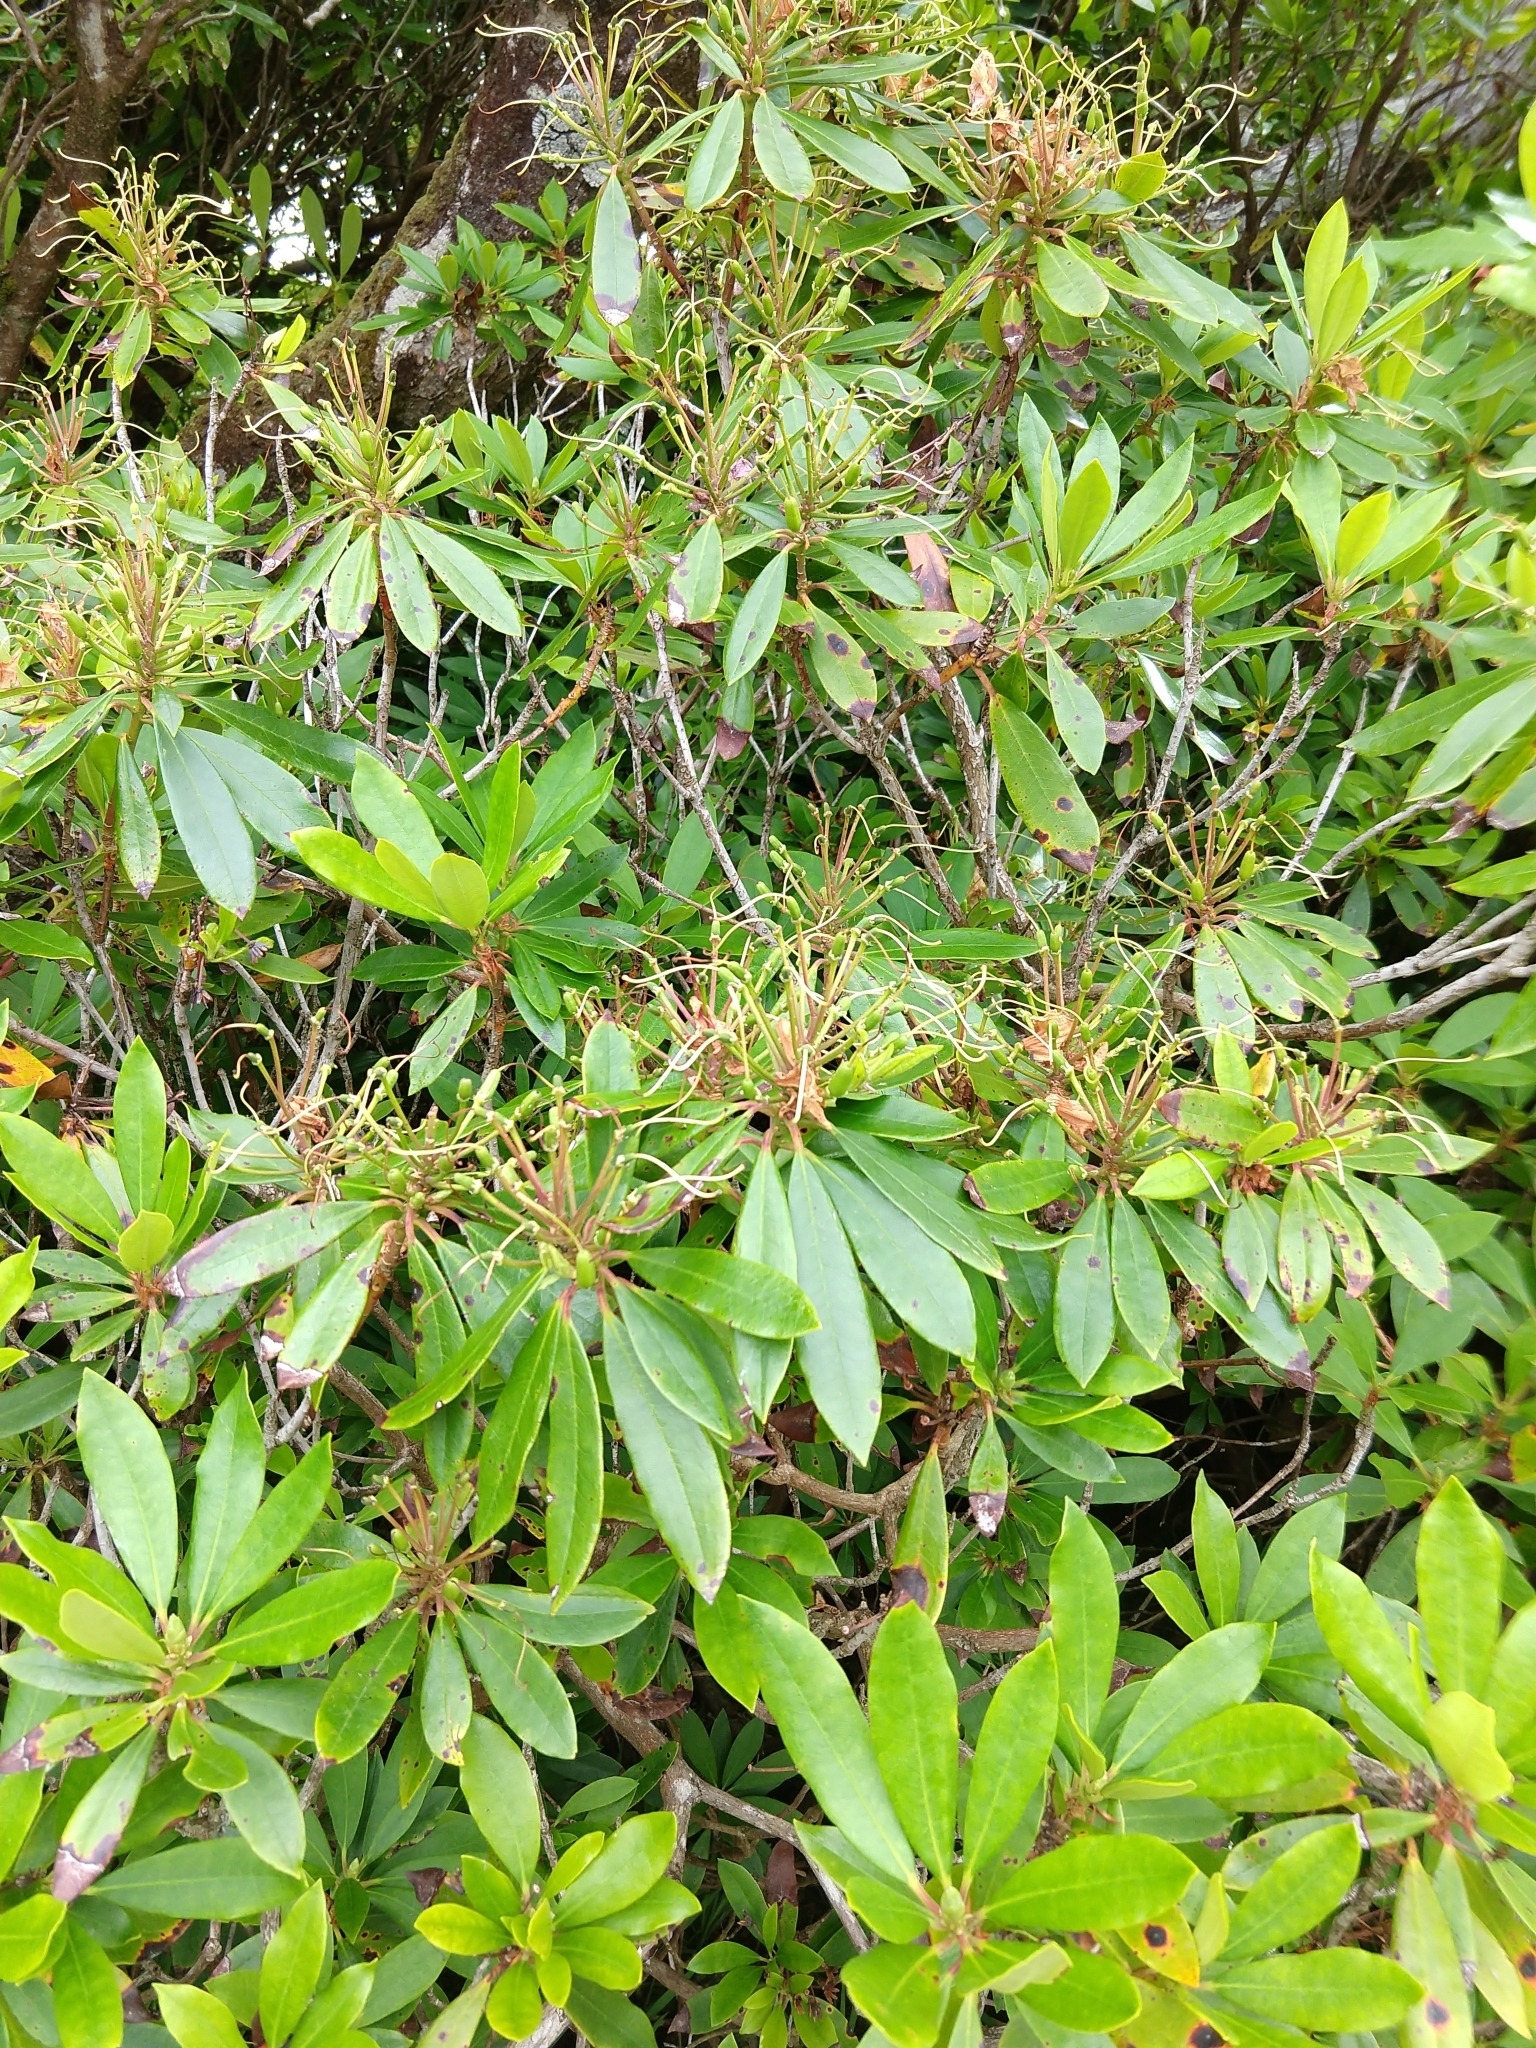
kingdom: Plantae
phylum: Tracheophyta
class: Magnoliopsida
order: Ericales
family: Ericaceae
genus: Rhododendron
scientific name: Rhododendron ponticum
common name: Rhododendron
